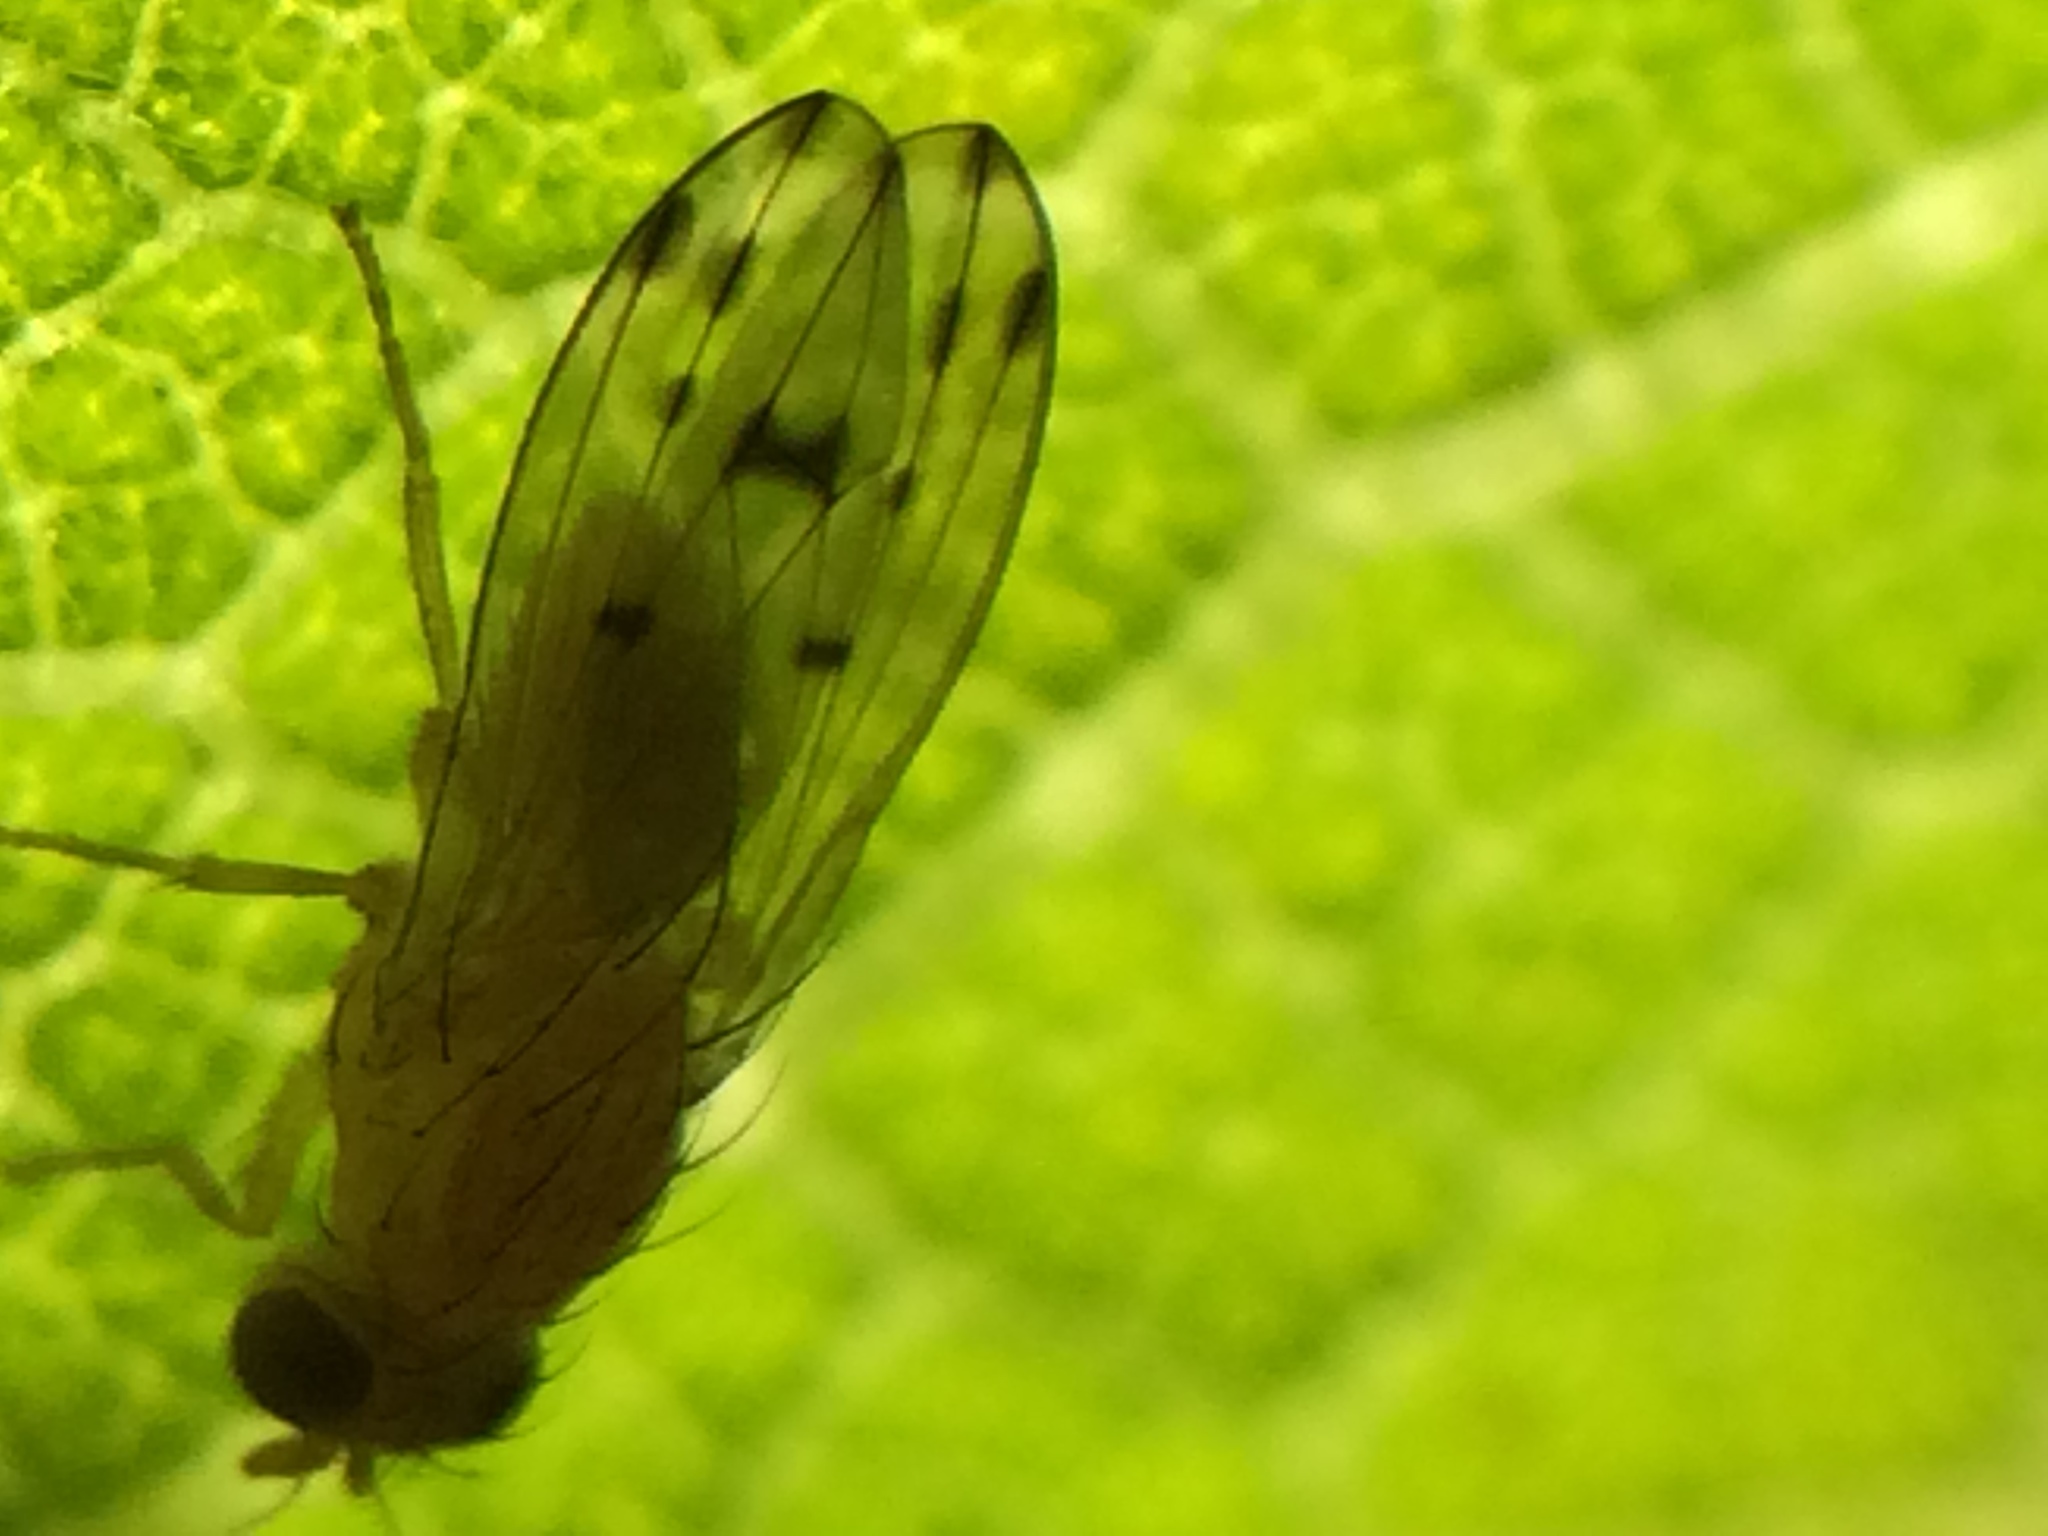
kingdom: Animalia
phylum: Arthropoda
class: Insecta
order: Diptera
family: Lauxaniidae
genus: Homoneura
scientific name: Homoneura occidentalis
